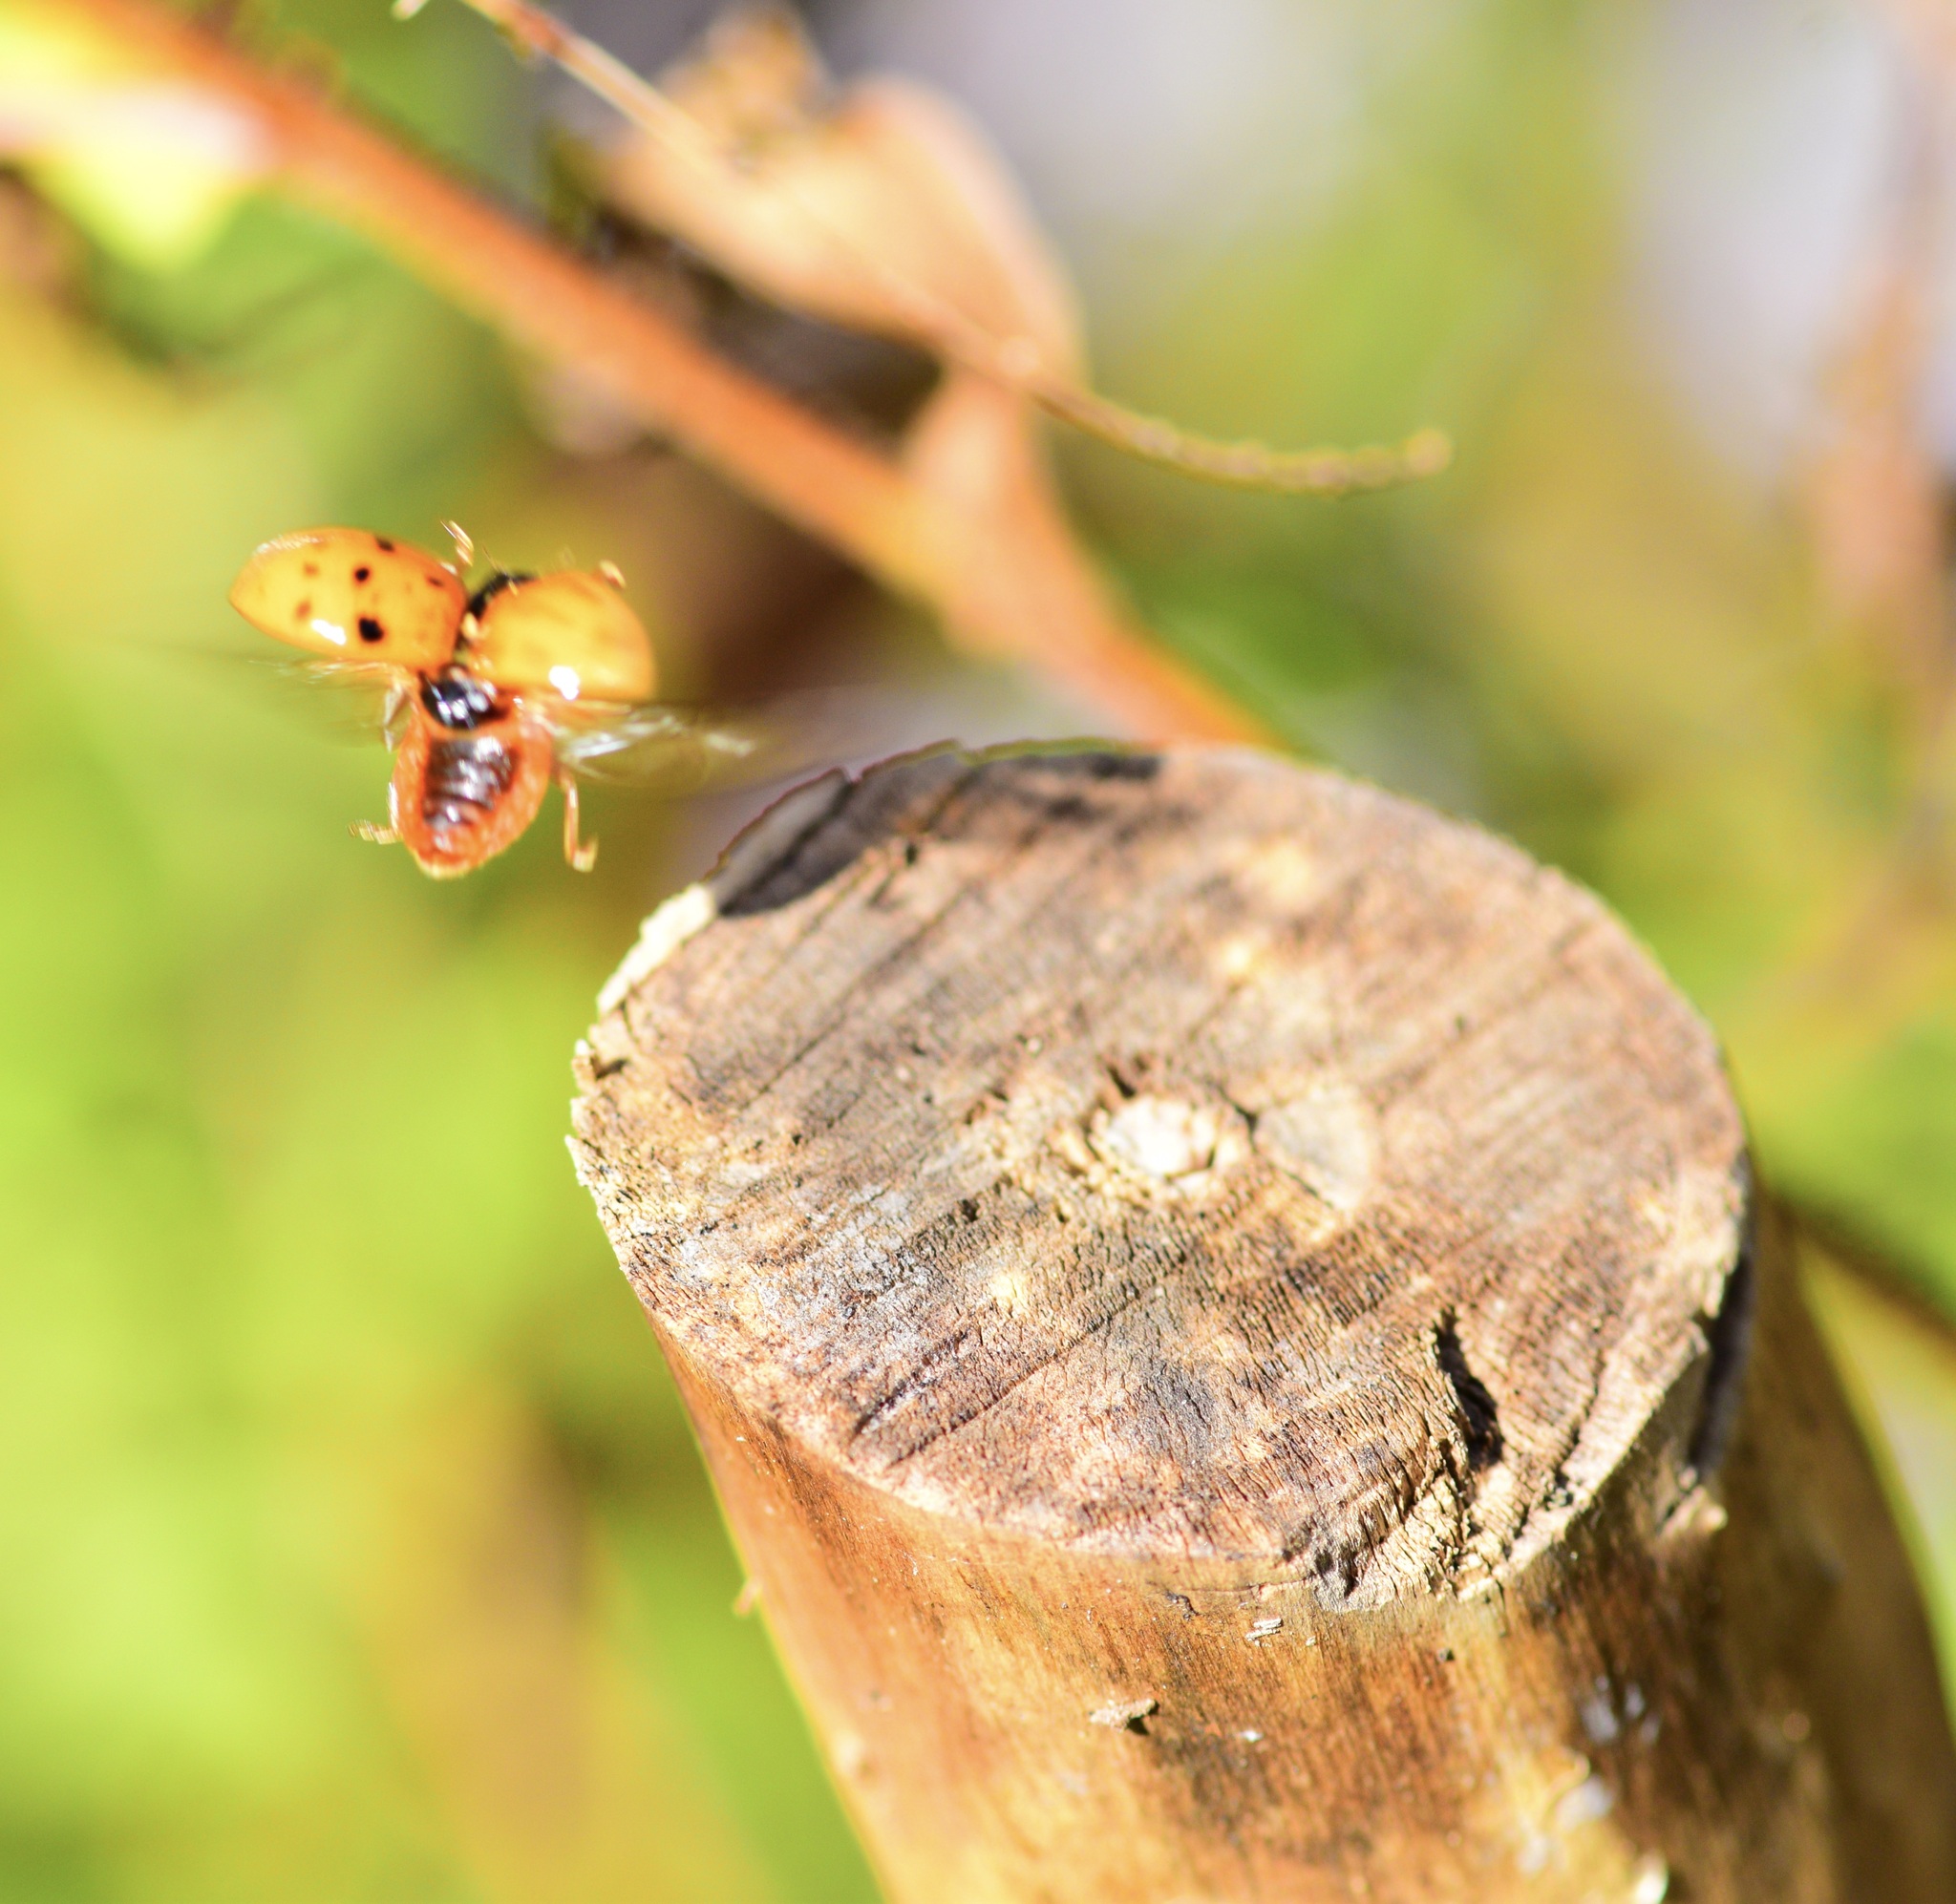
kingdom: Animalia
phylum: Arthropoda
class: Insecta
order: Coleoptera
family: Coccinellidae
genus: Harmonia
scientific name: Harmonia axyridis
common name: Harlequin ladybird
